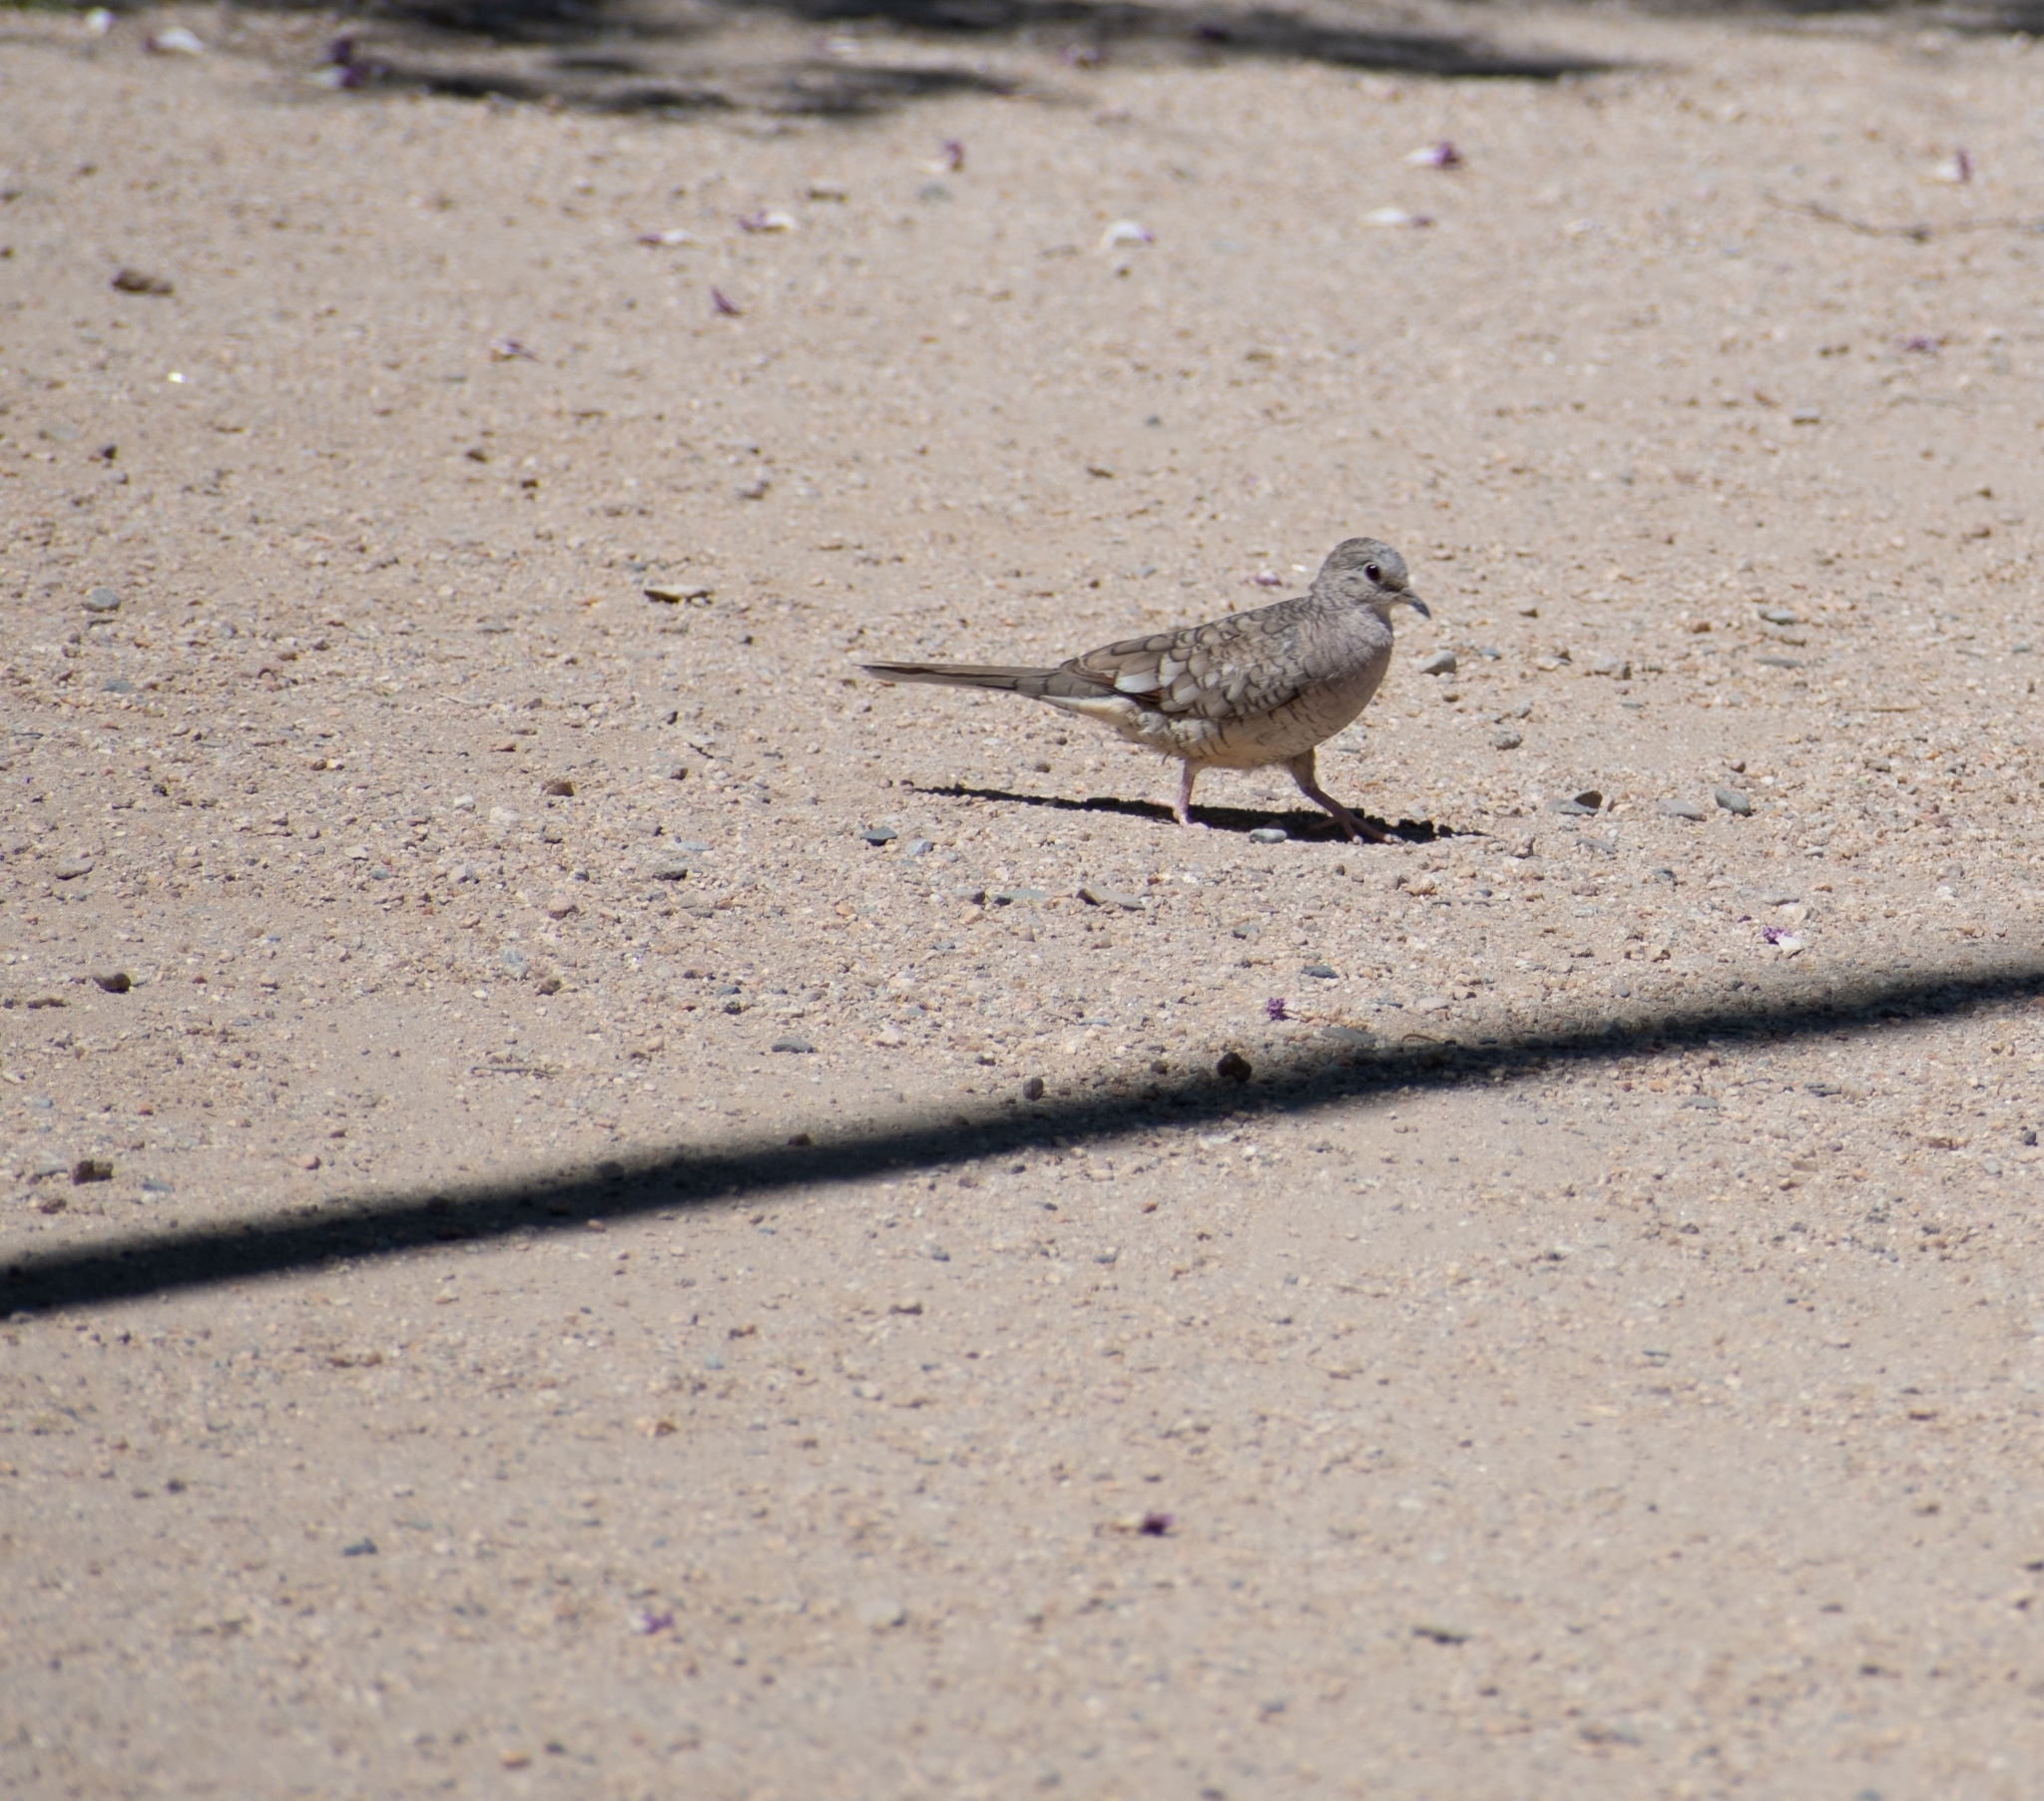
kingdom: Animalia
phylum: Chordata
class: Aves
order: Columbiformes
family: Columbidae
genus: Columbina
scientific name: Columbina inca
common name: Inca dove
